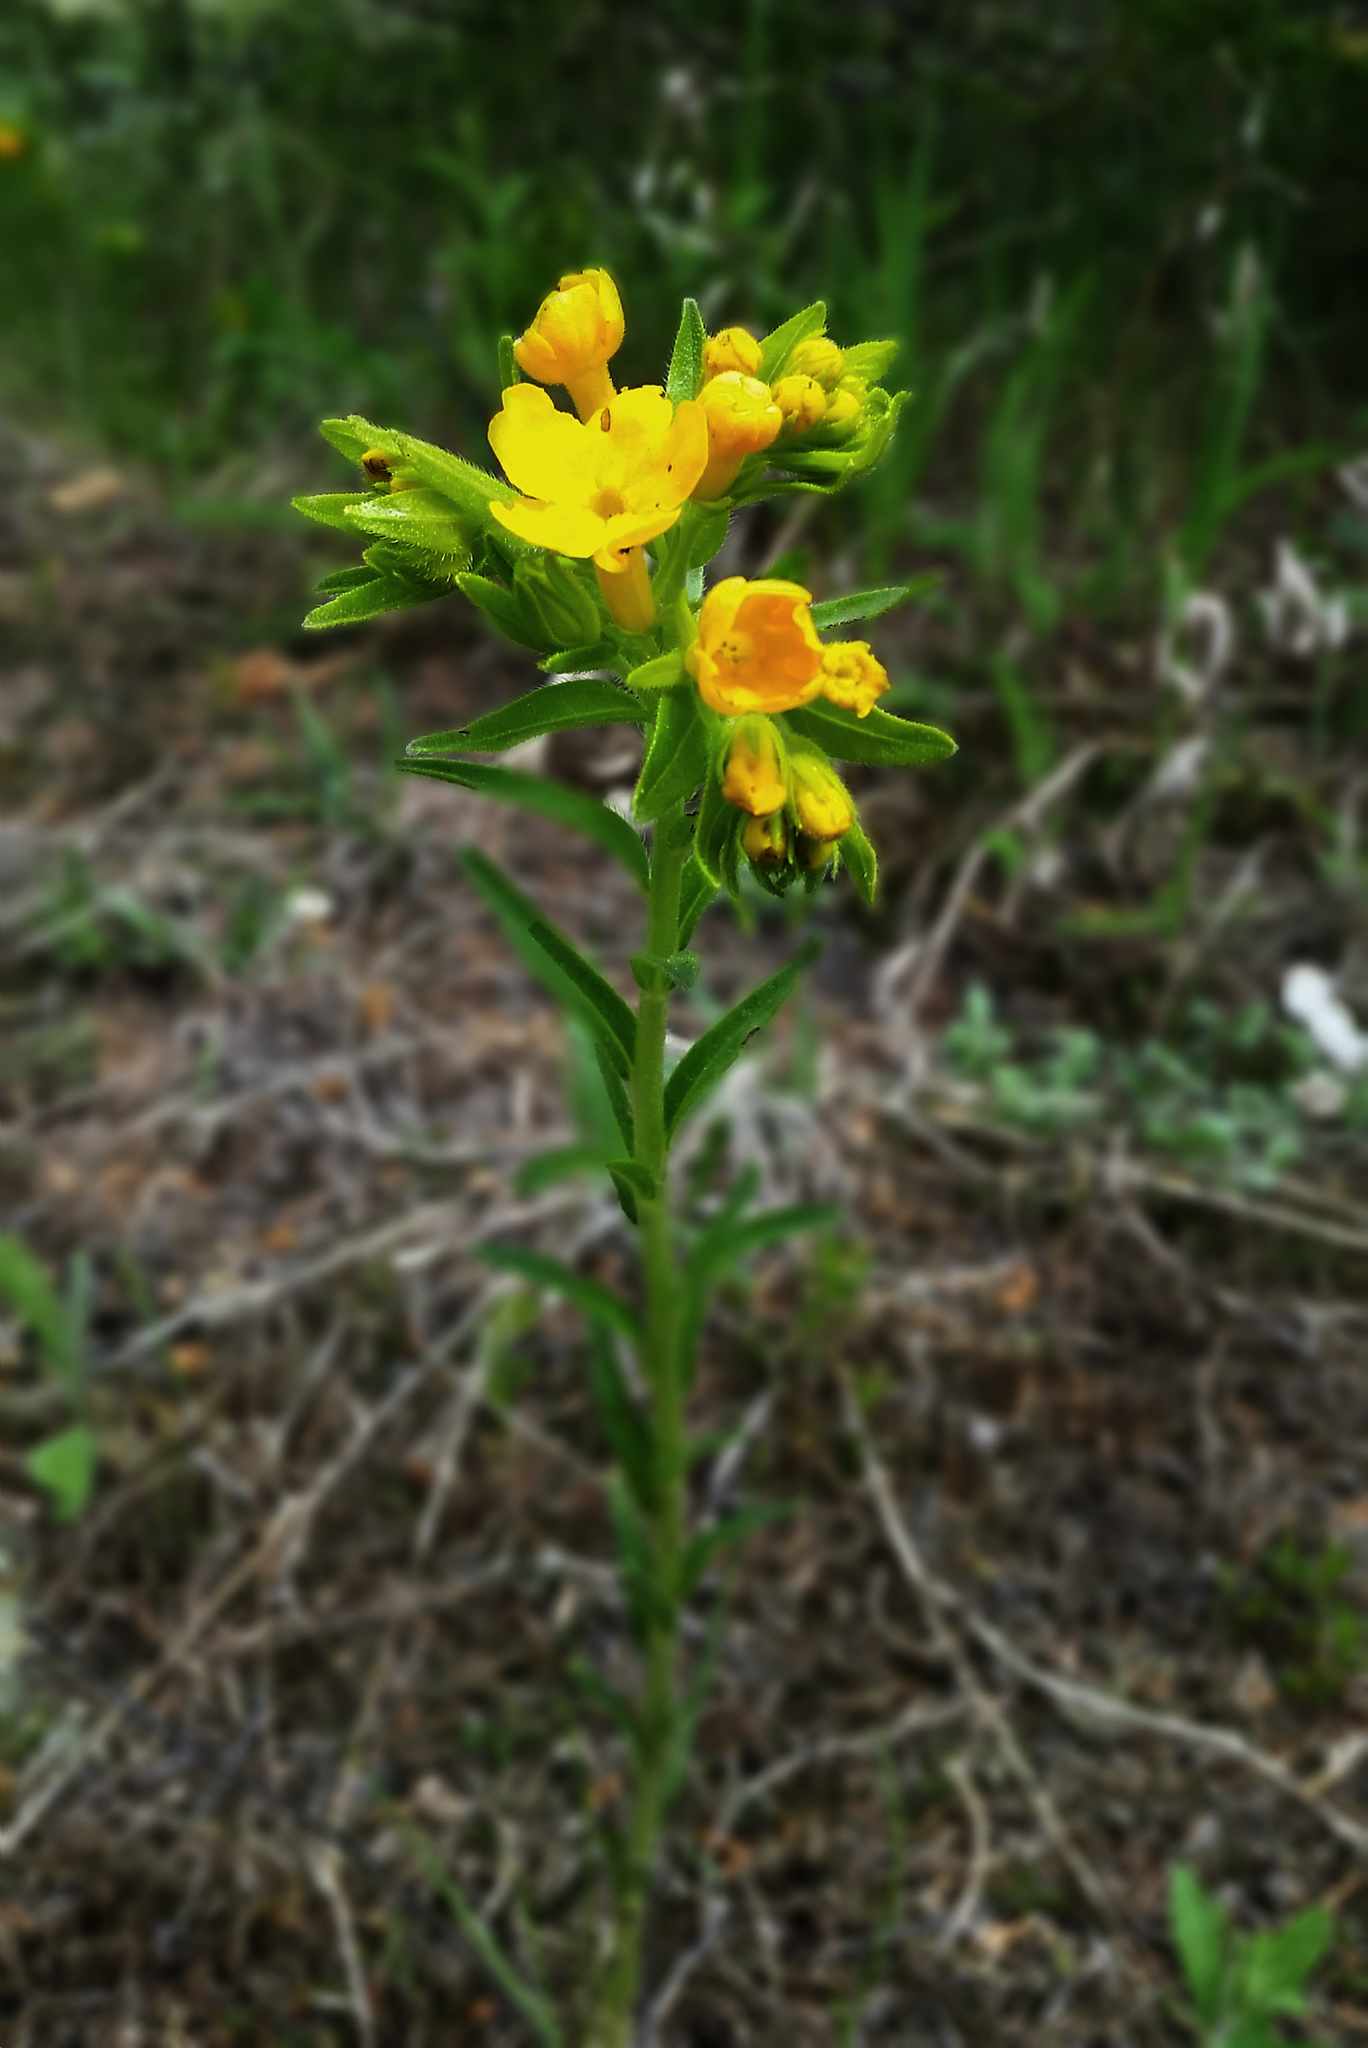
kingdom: Plantae
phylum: Tracheophyta
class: Magnoliopsida
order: Boraginales
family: Boraginaceae
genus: Lithospermum
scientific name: Lithospermum caroliniense
